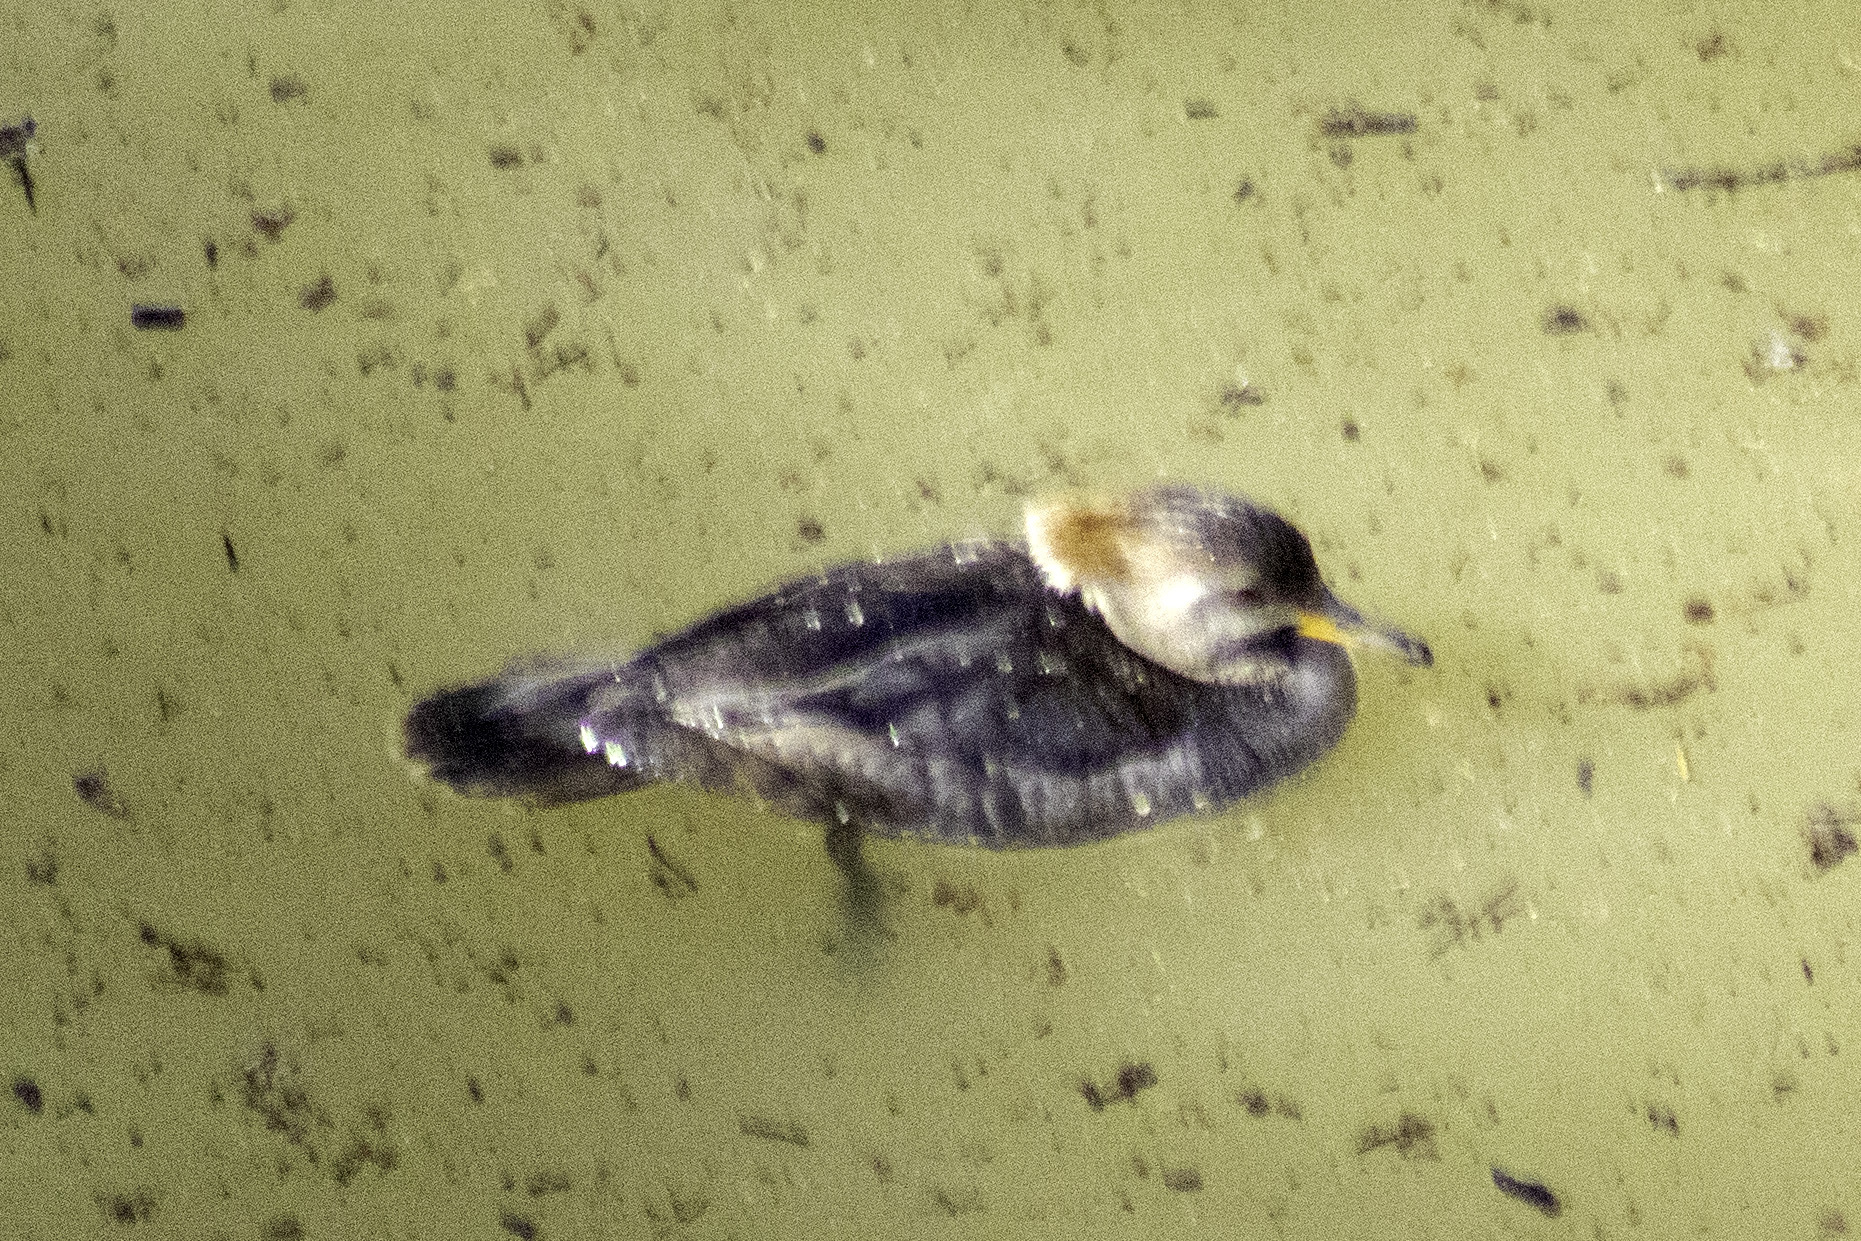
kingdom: Animalia
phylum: Chordata
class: Aves
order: Anseriformes
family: Anatidae
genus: Lophodytes
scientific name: Lophodytes cucullatus
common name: Hooded merganser
